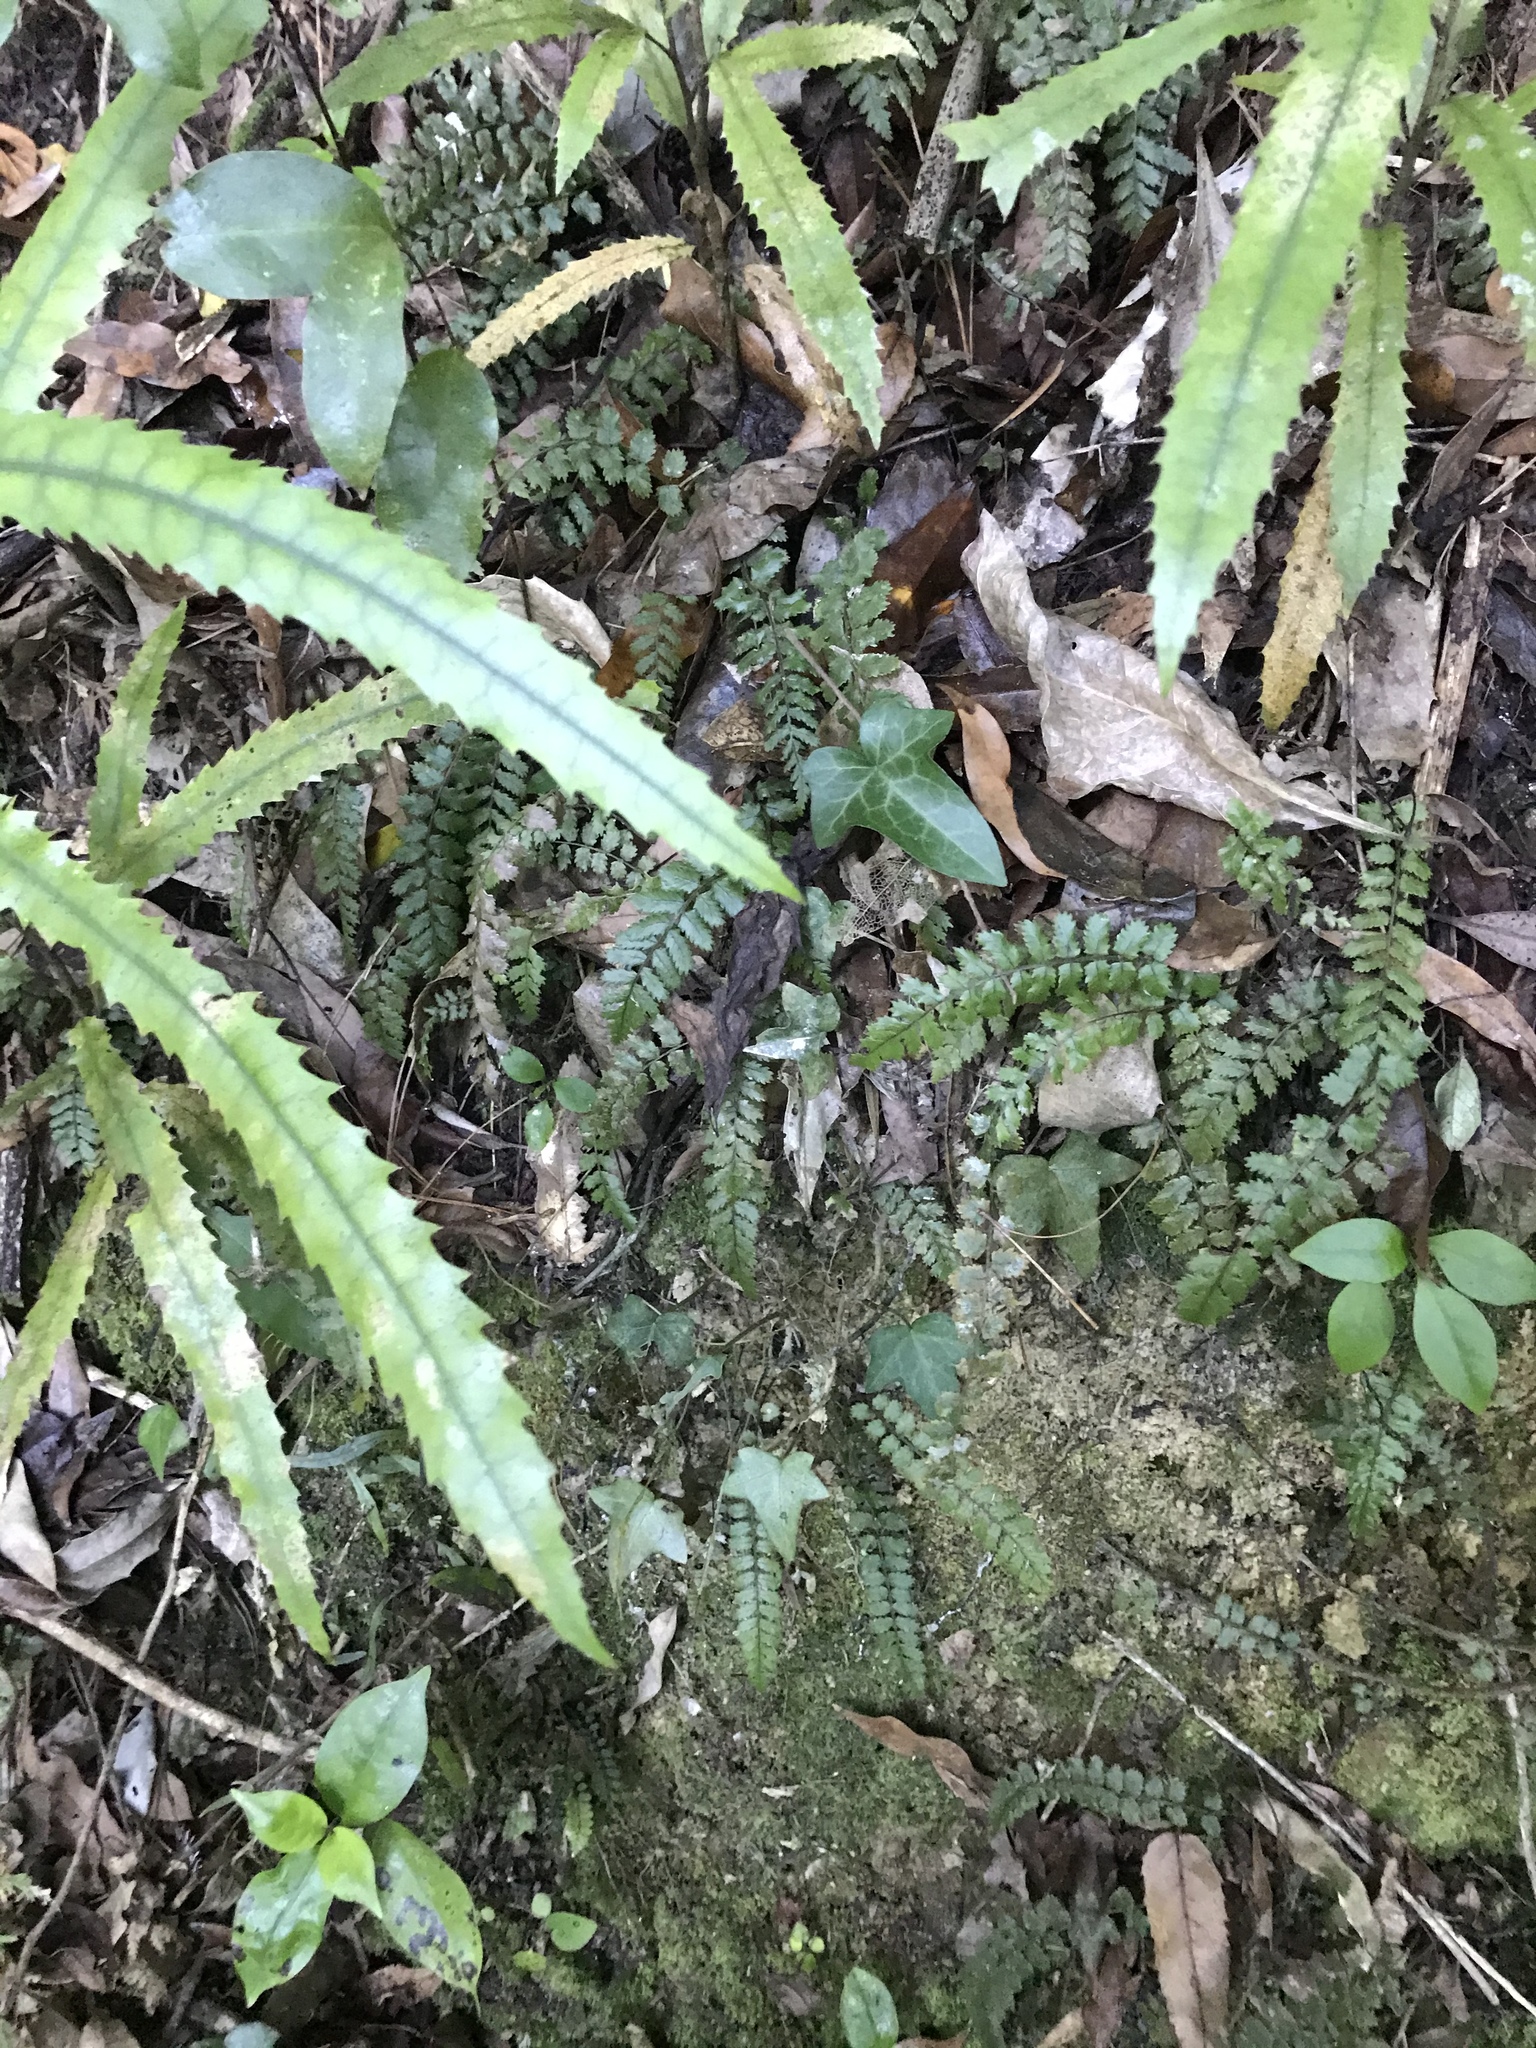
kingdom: Plantae
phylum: Tracheophyta
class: Magnoliopsida
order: Apiales
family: Araliaceae
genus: Hedera
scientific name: Hedera helix
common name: Ivy
